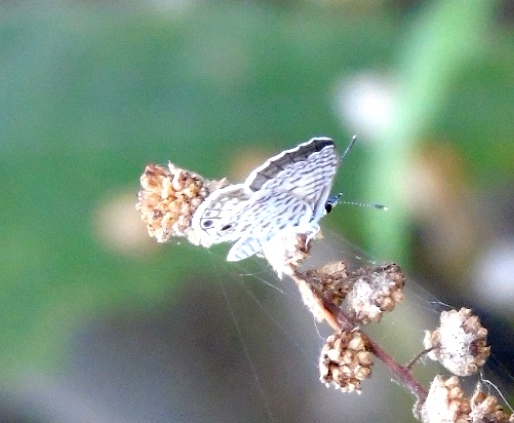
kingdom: Animalia
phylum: Arthropoda
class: Insecta
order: Lepidoptera
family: Lycaenidae
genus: Leptotes
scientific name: Leptotes theonus
